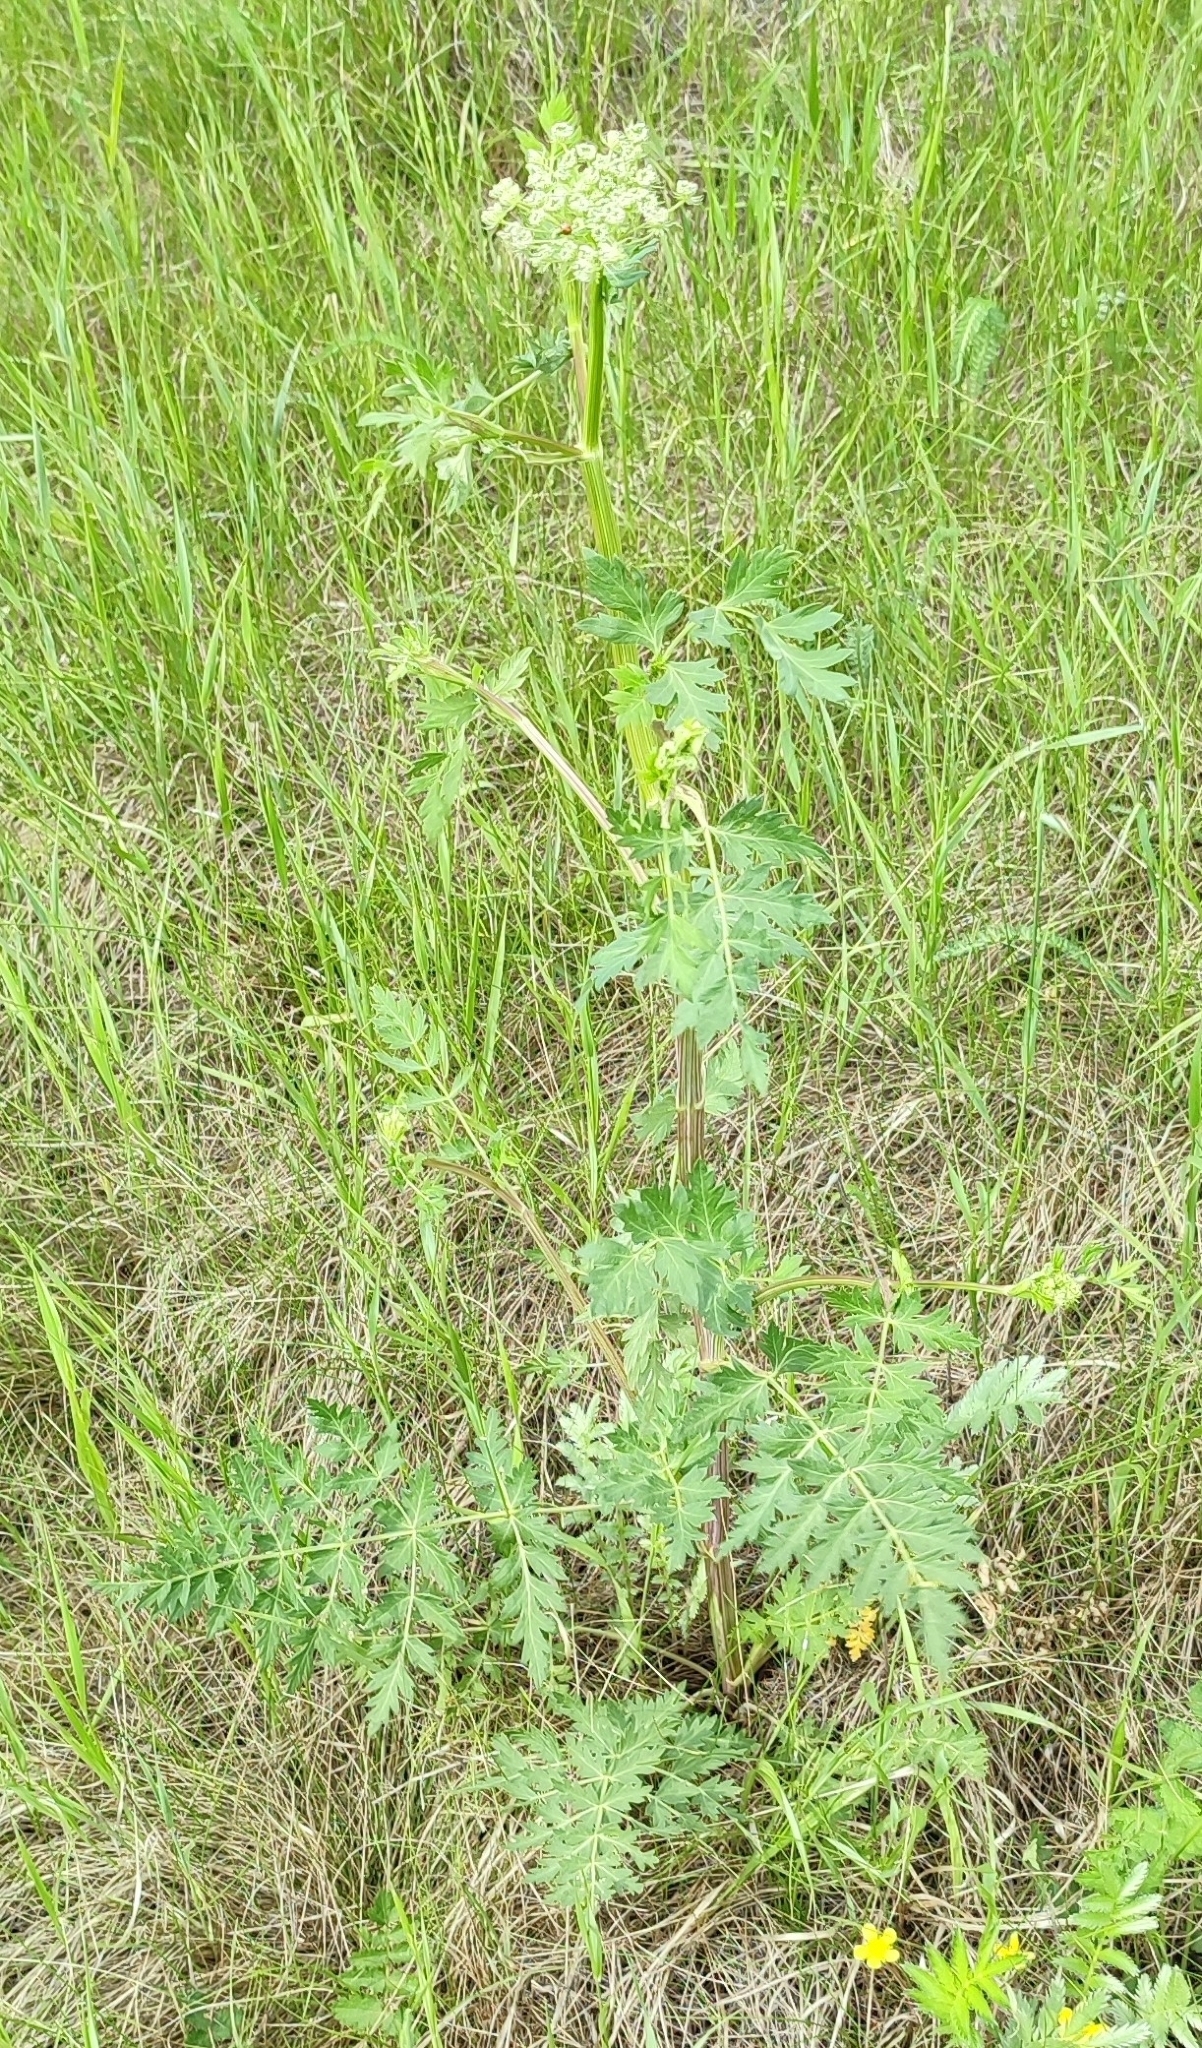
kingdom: Plantae
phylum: Tracheophyta
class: Magnoliopsida
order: Apiales
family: Apiaceae
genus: Seseli
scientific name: Seseli libanotis
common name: Mooncarrot
